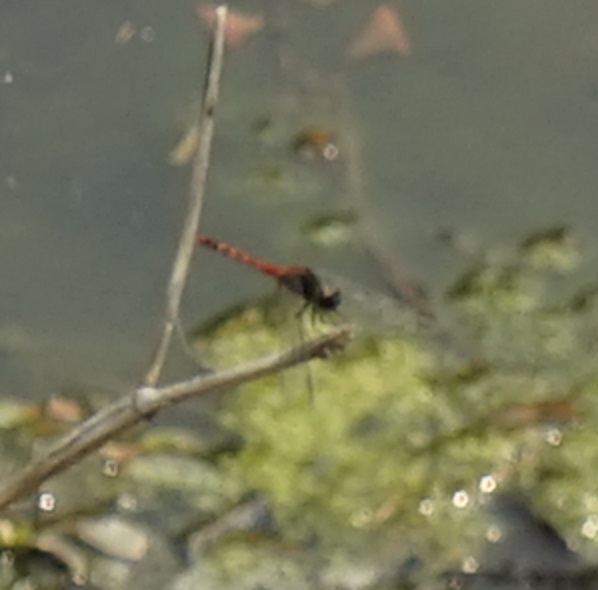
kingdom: Animalia
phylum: Arthropoda
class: Insecta
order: Odonata
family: Libellulidae
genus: Diplacodes
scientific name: Diplacodes melanopsis
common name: Black-faced percher
